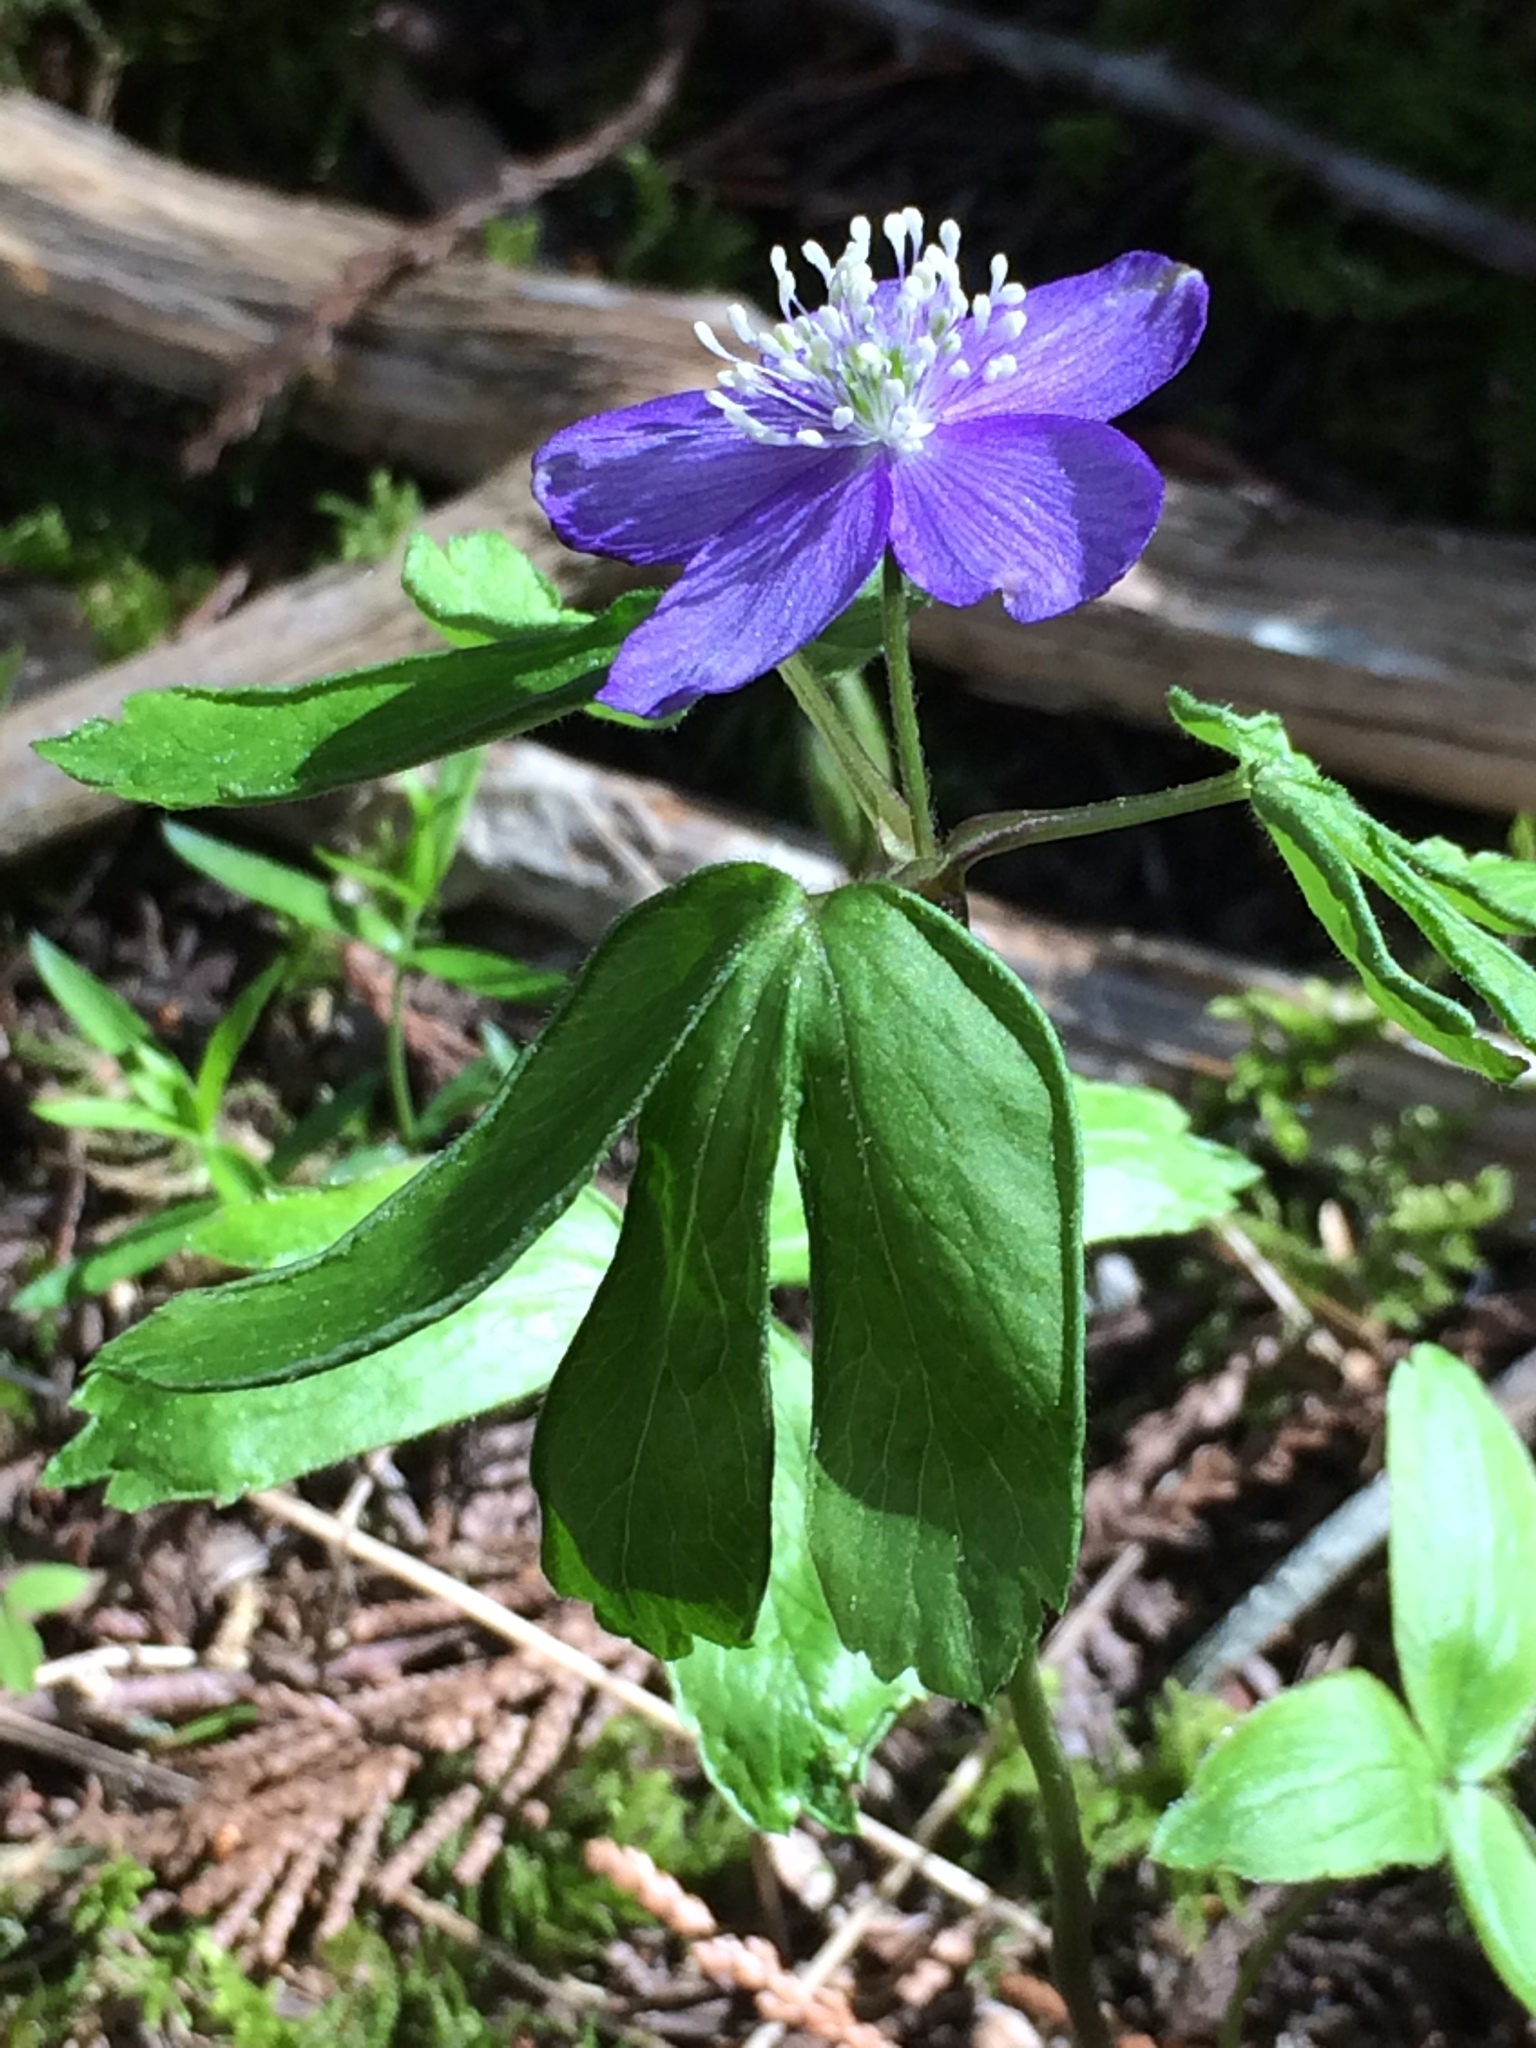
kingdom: Plantae
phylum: Tracheophyta
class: Magnoliopsida
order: Ranunculales
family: Ranunculaceae
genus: Anemone
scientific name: Anemone oregana
